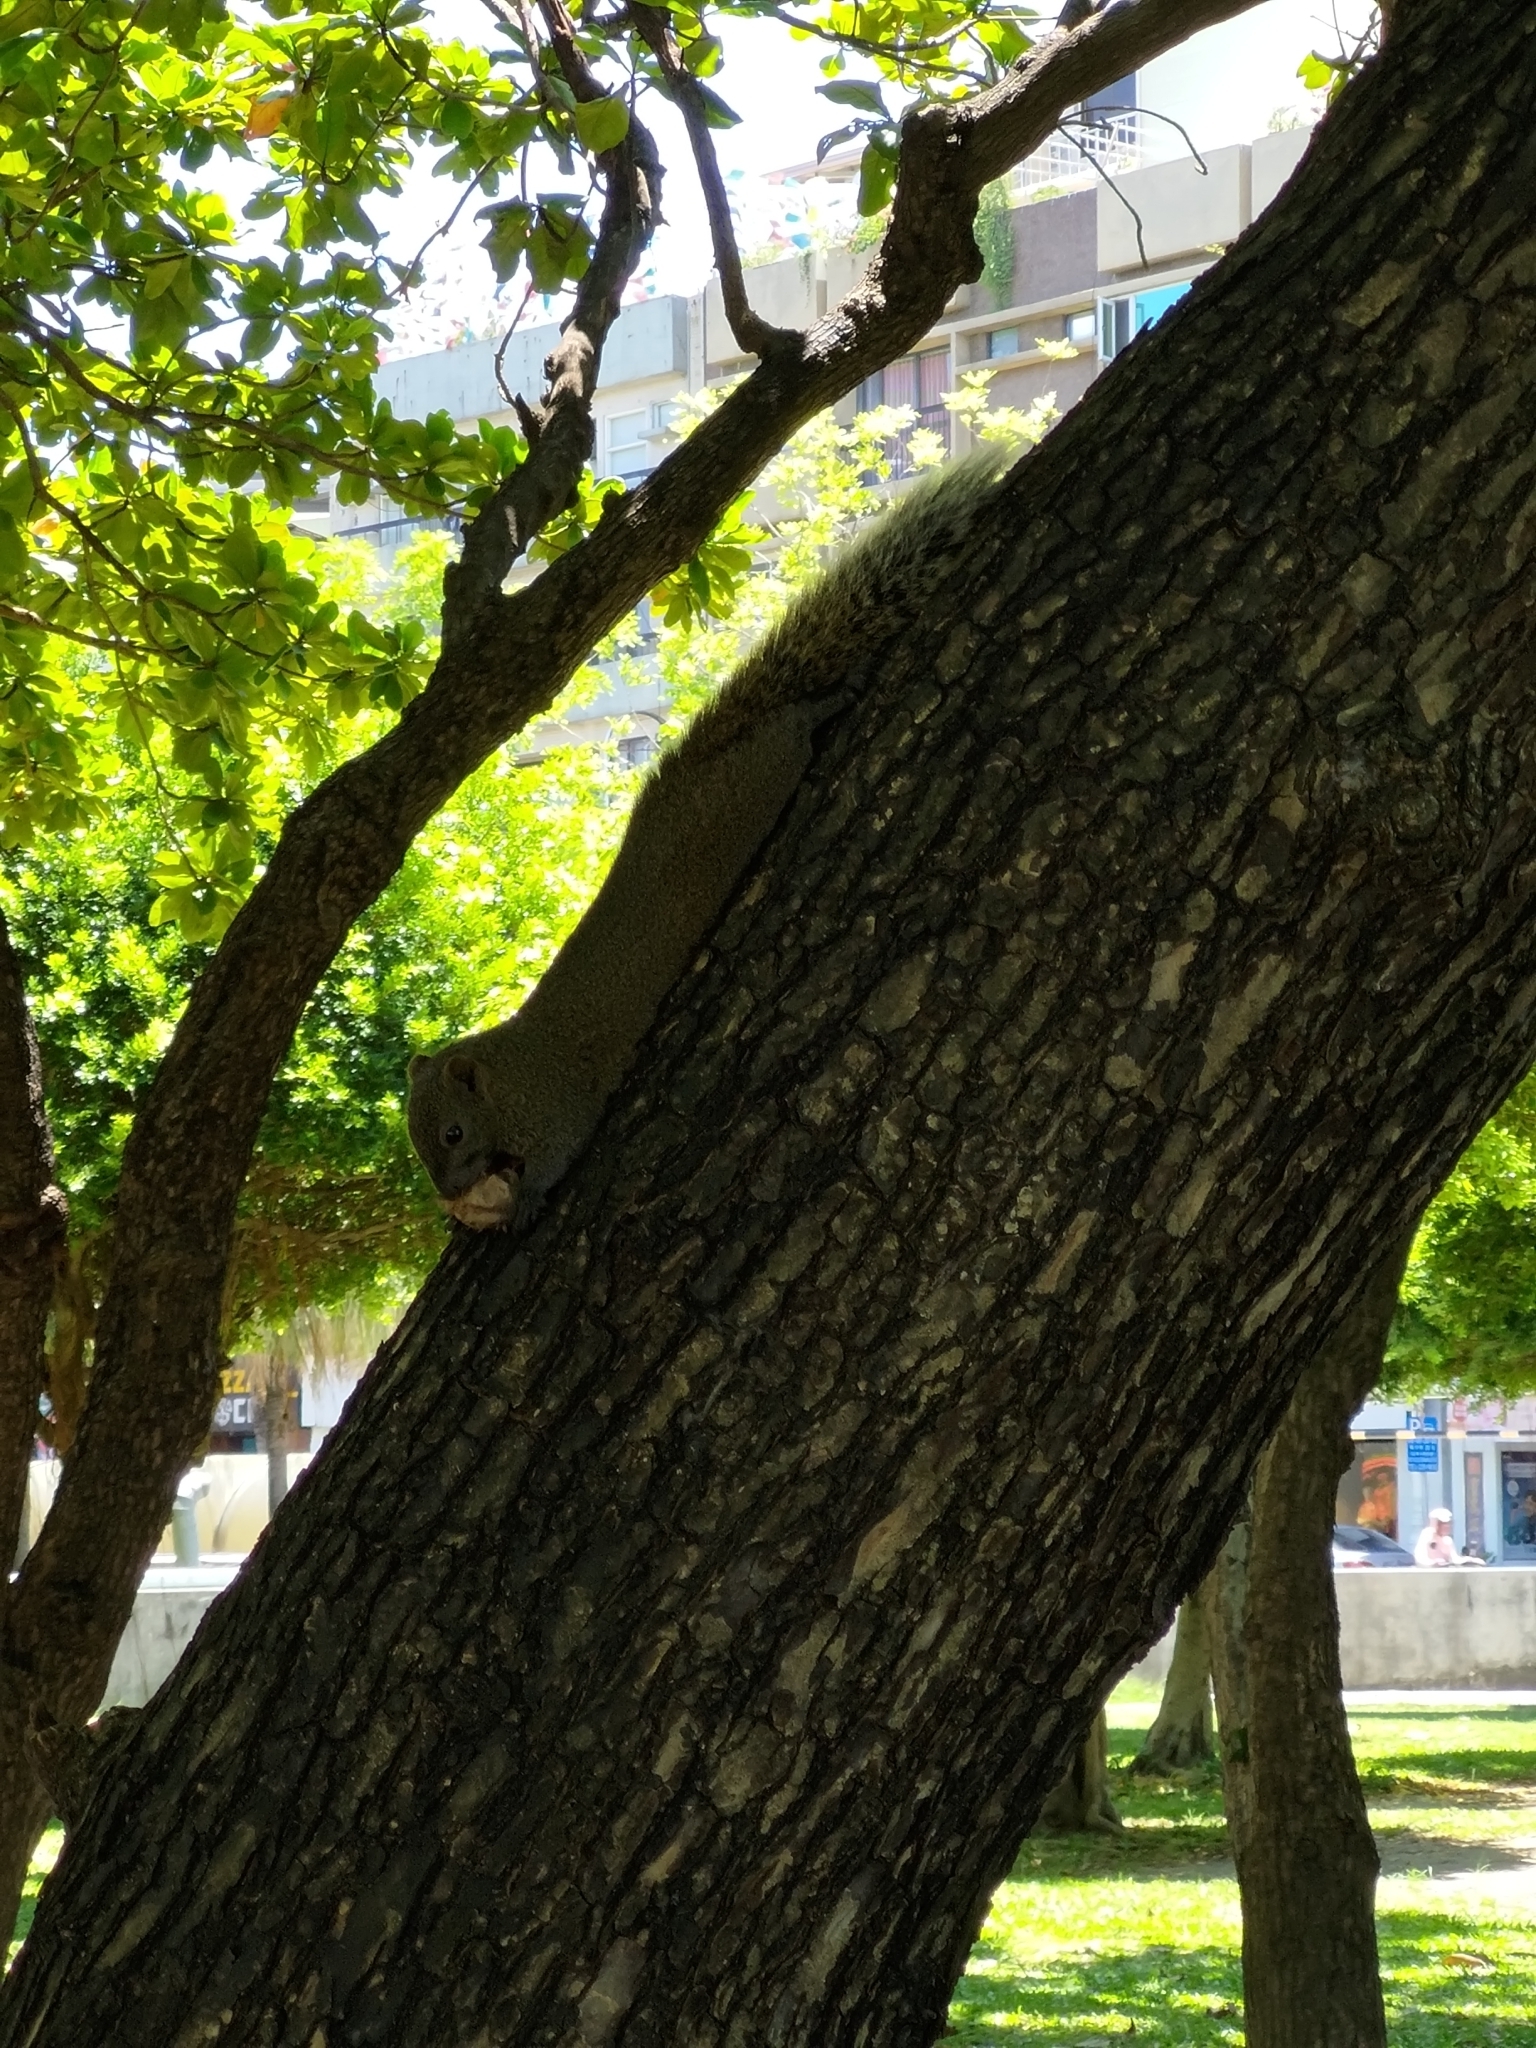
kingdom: Animalia
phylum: Chordata
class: Mammalia
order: Rodentia
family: Sciuridae
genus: Callosciurus
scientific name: Callosciurus erythraeus
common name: Pallas's squirrel
